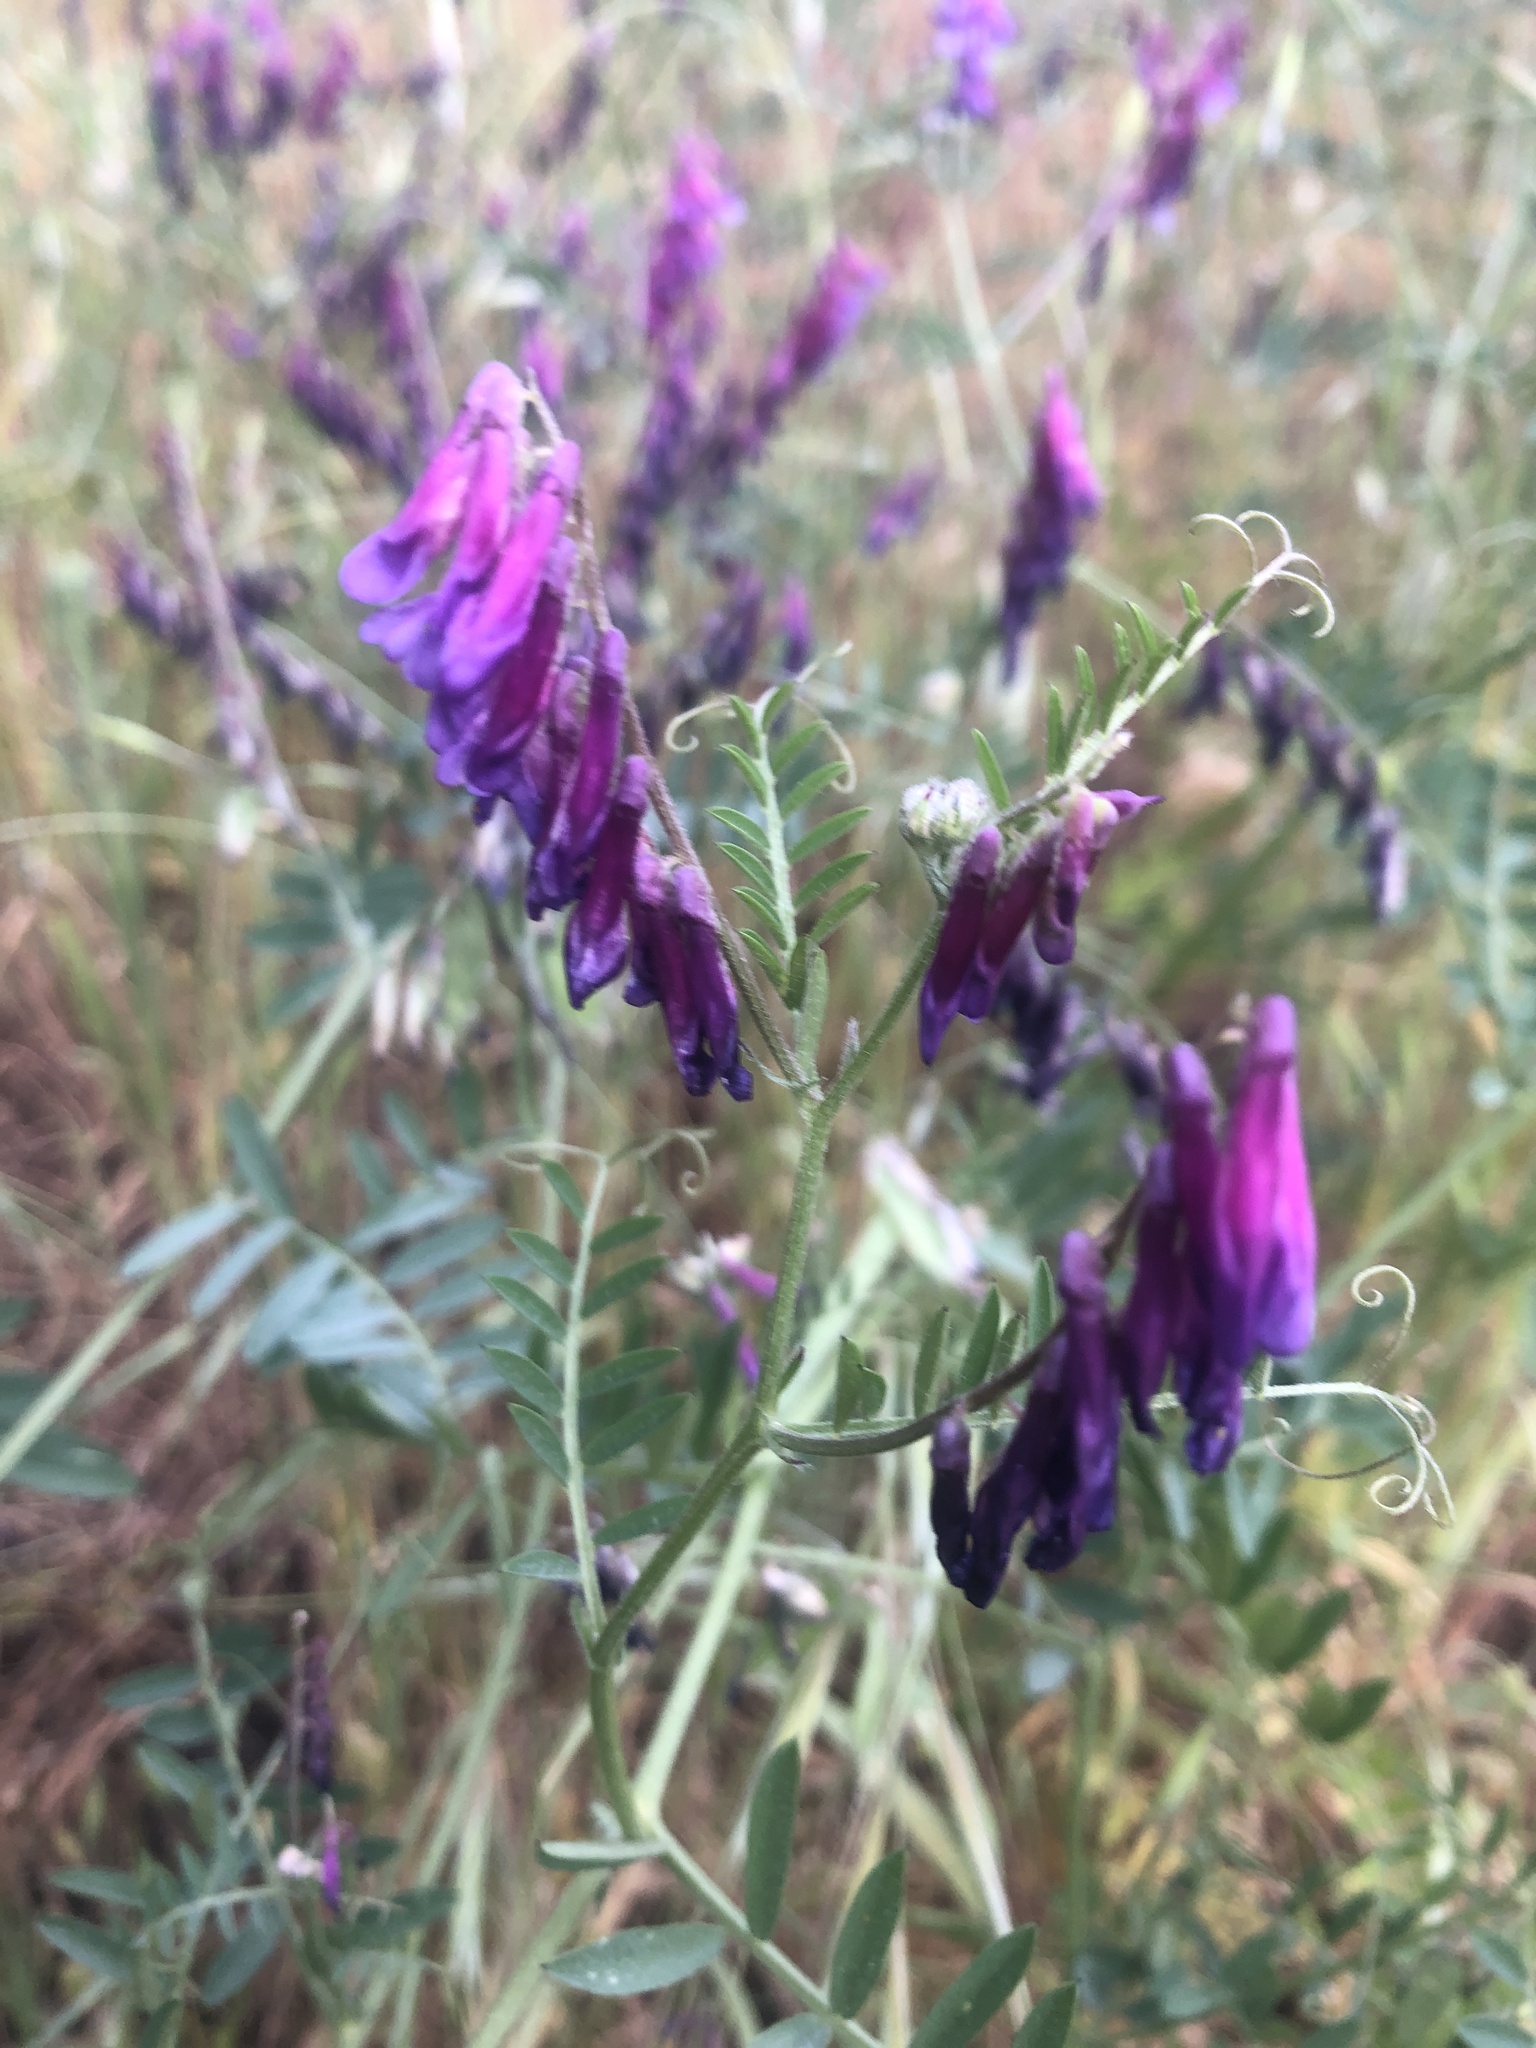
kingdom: Plantae
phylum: Tracheophyta
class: Magnoliopsida
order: Fabales
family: Fabaceae
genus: Vicia
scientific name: Vicia villosa
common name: Fodder vetch
